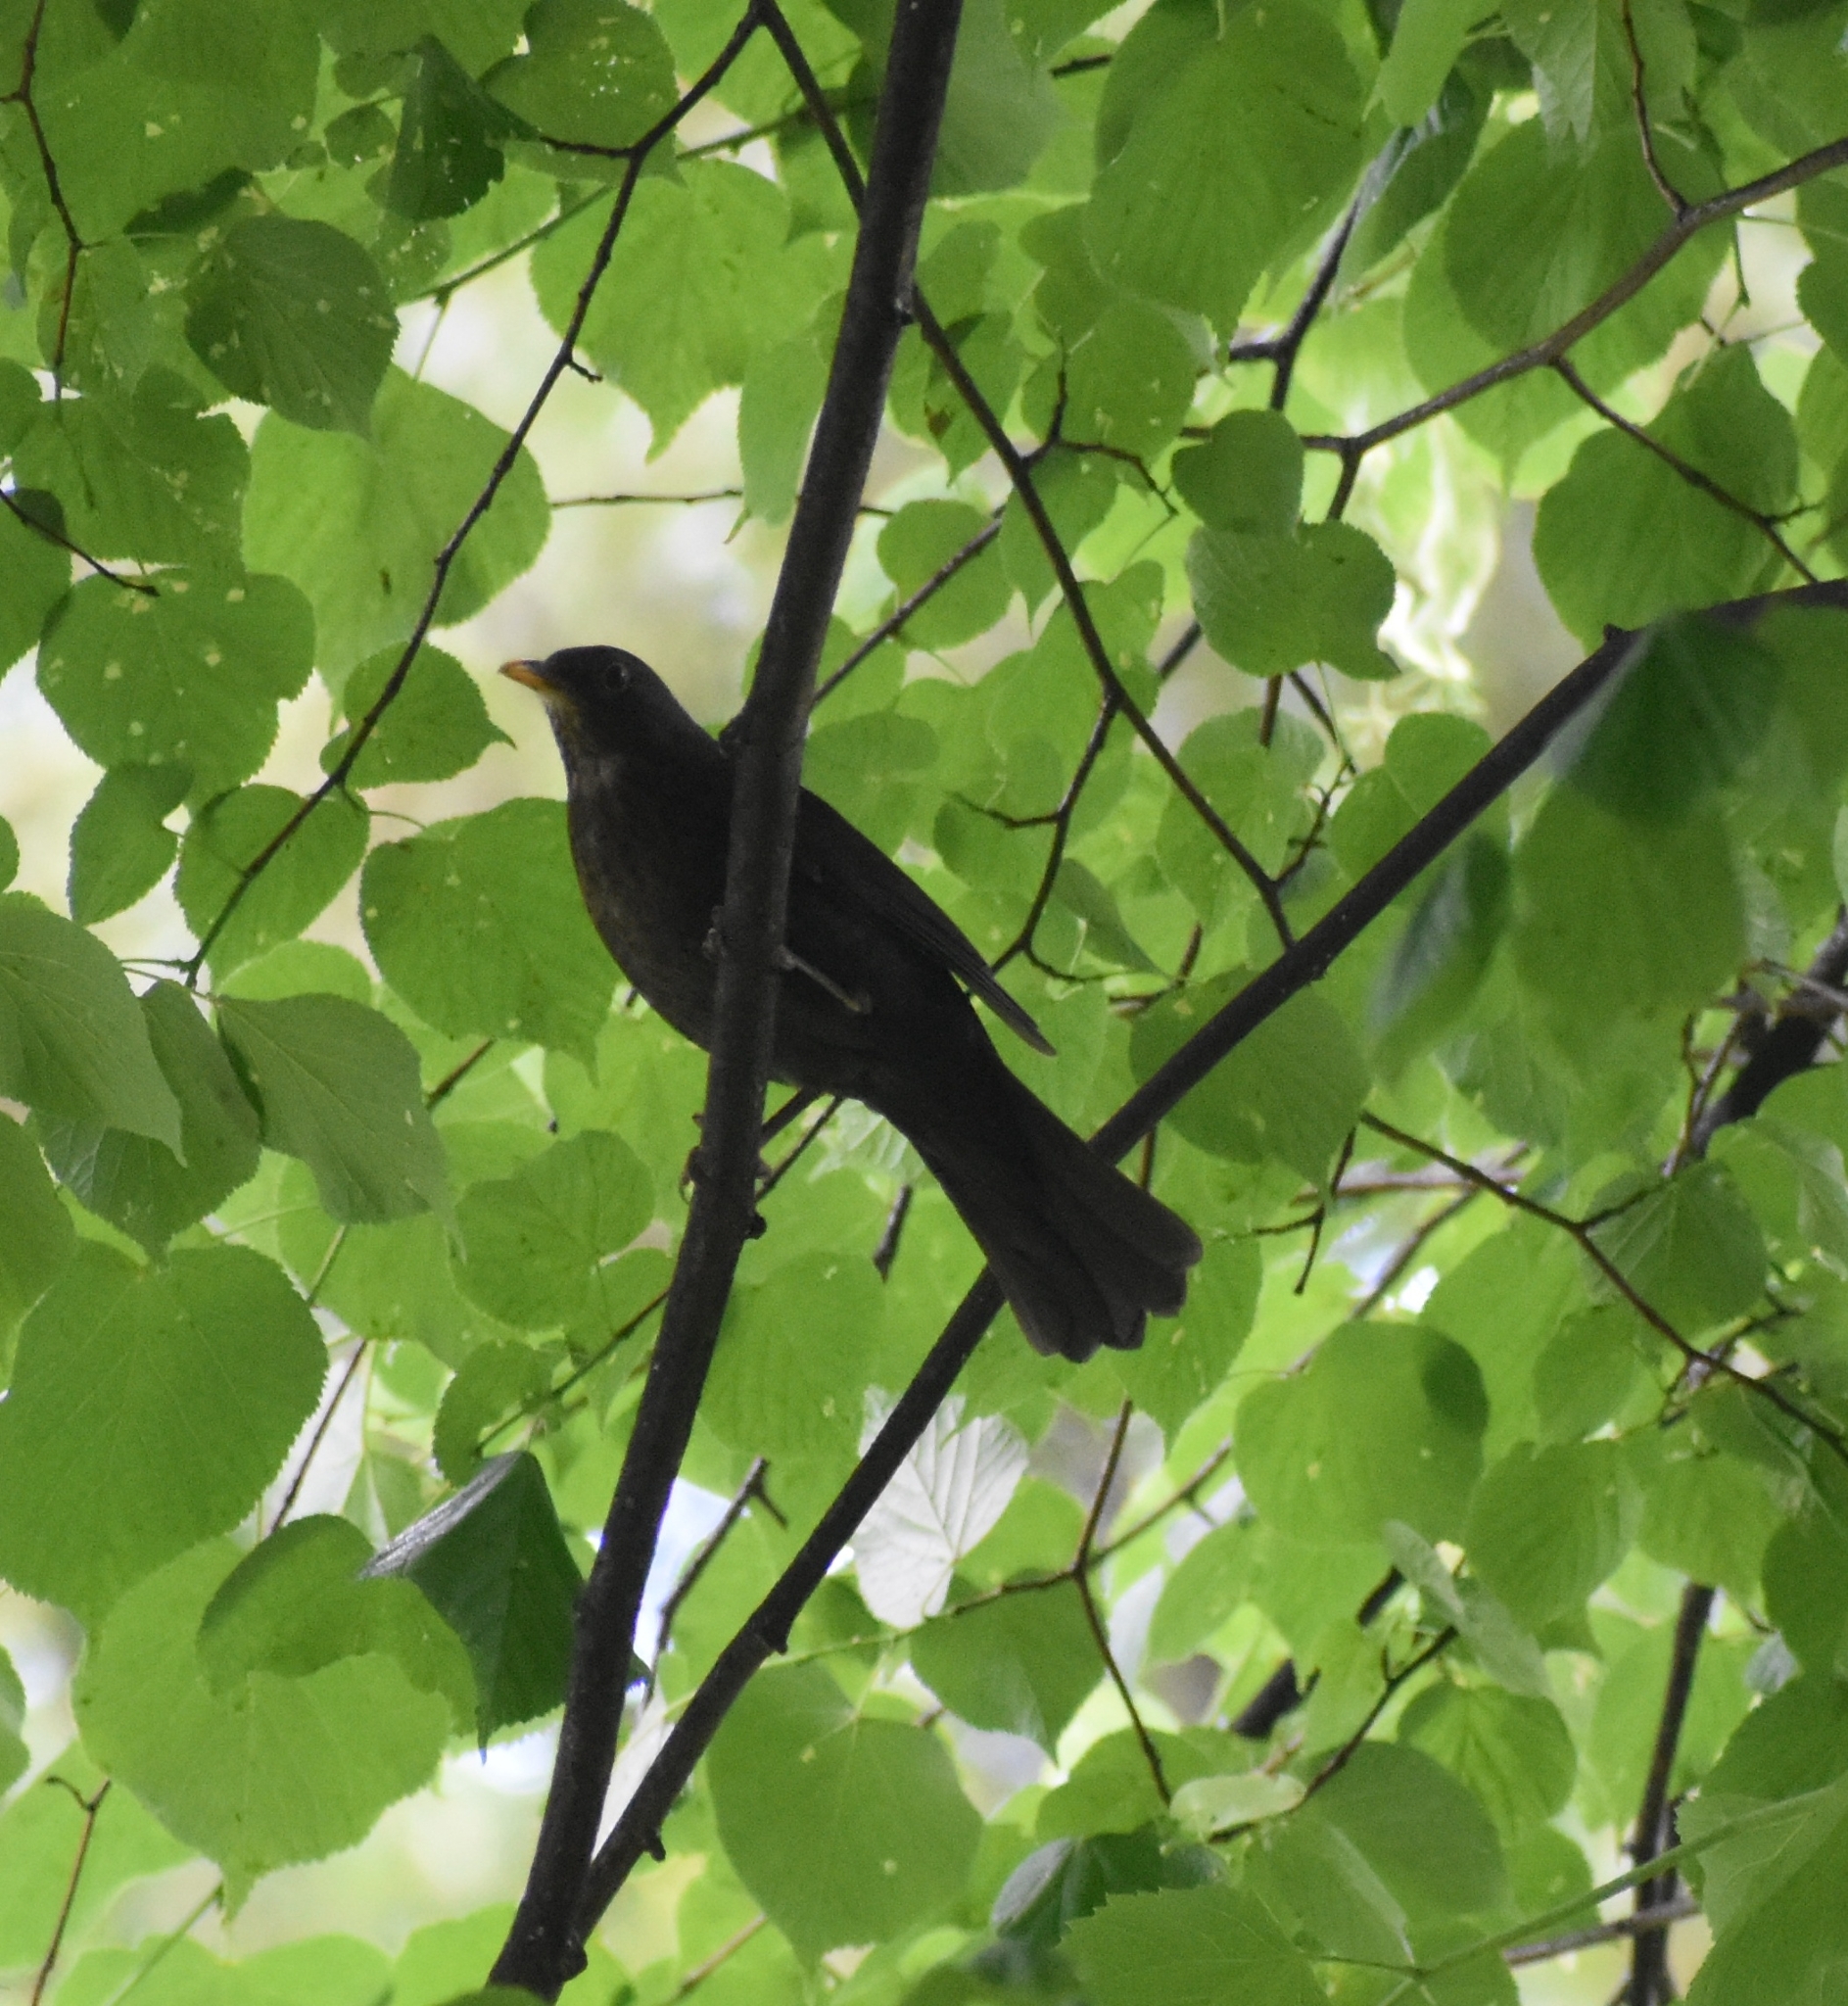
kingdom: Animalia
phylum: Chordata
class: Aves
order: Passeriformes
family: Turdidae
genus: Turdus
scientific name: Turdus merula
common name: Common blackbird
